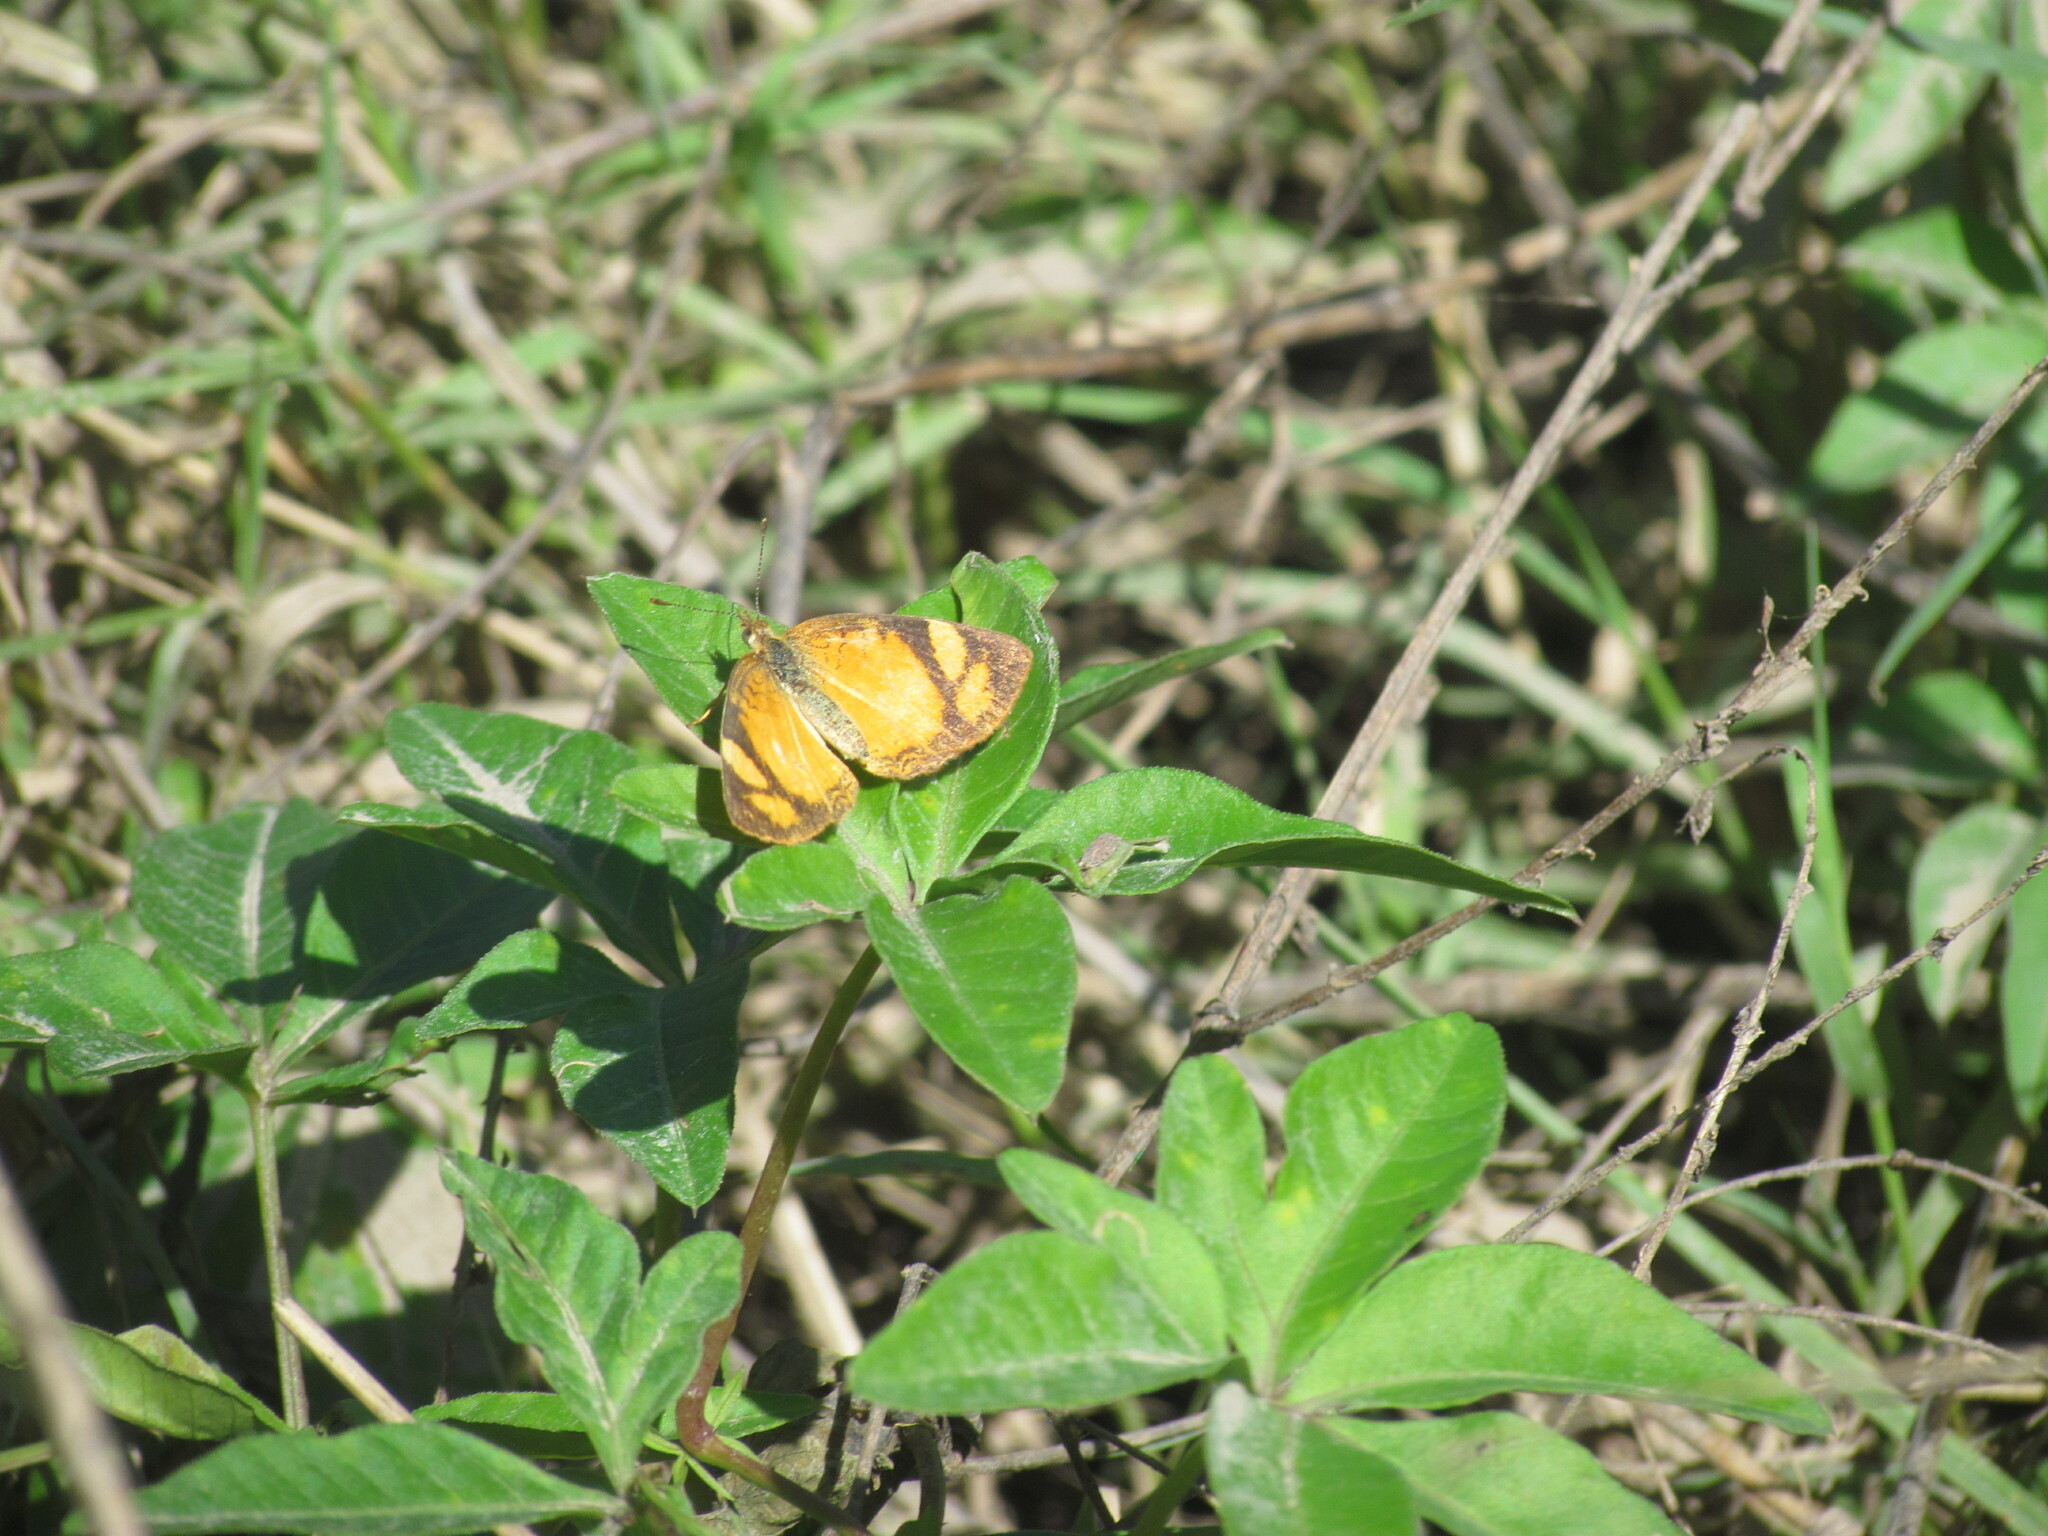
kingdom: Animalia
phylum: Arthropoda
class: Insecta
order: Lepidoptera
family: Nymphalidae
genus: Tegosa
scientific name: Tegosa claudina
